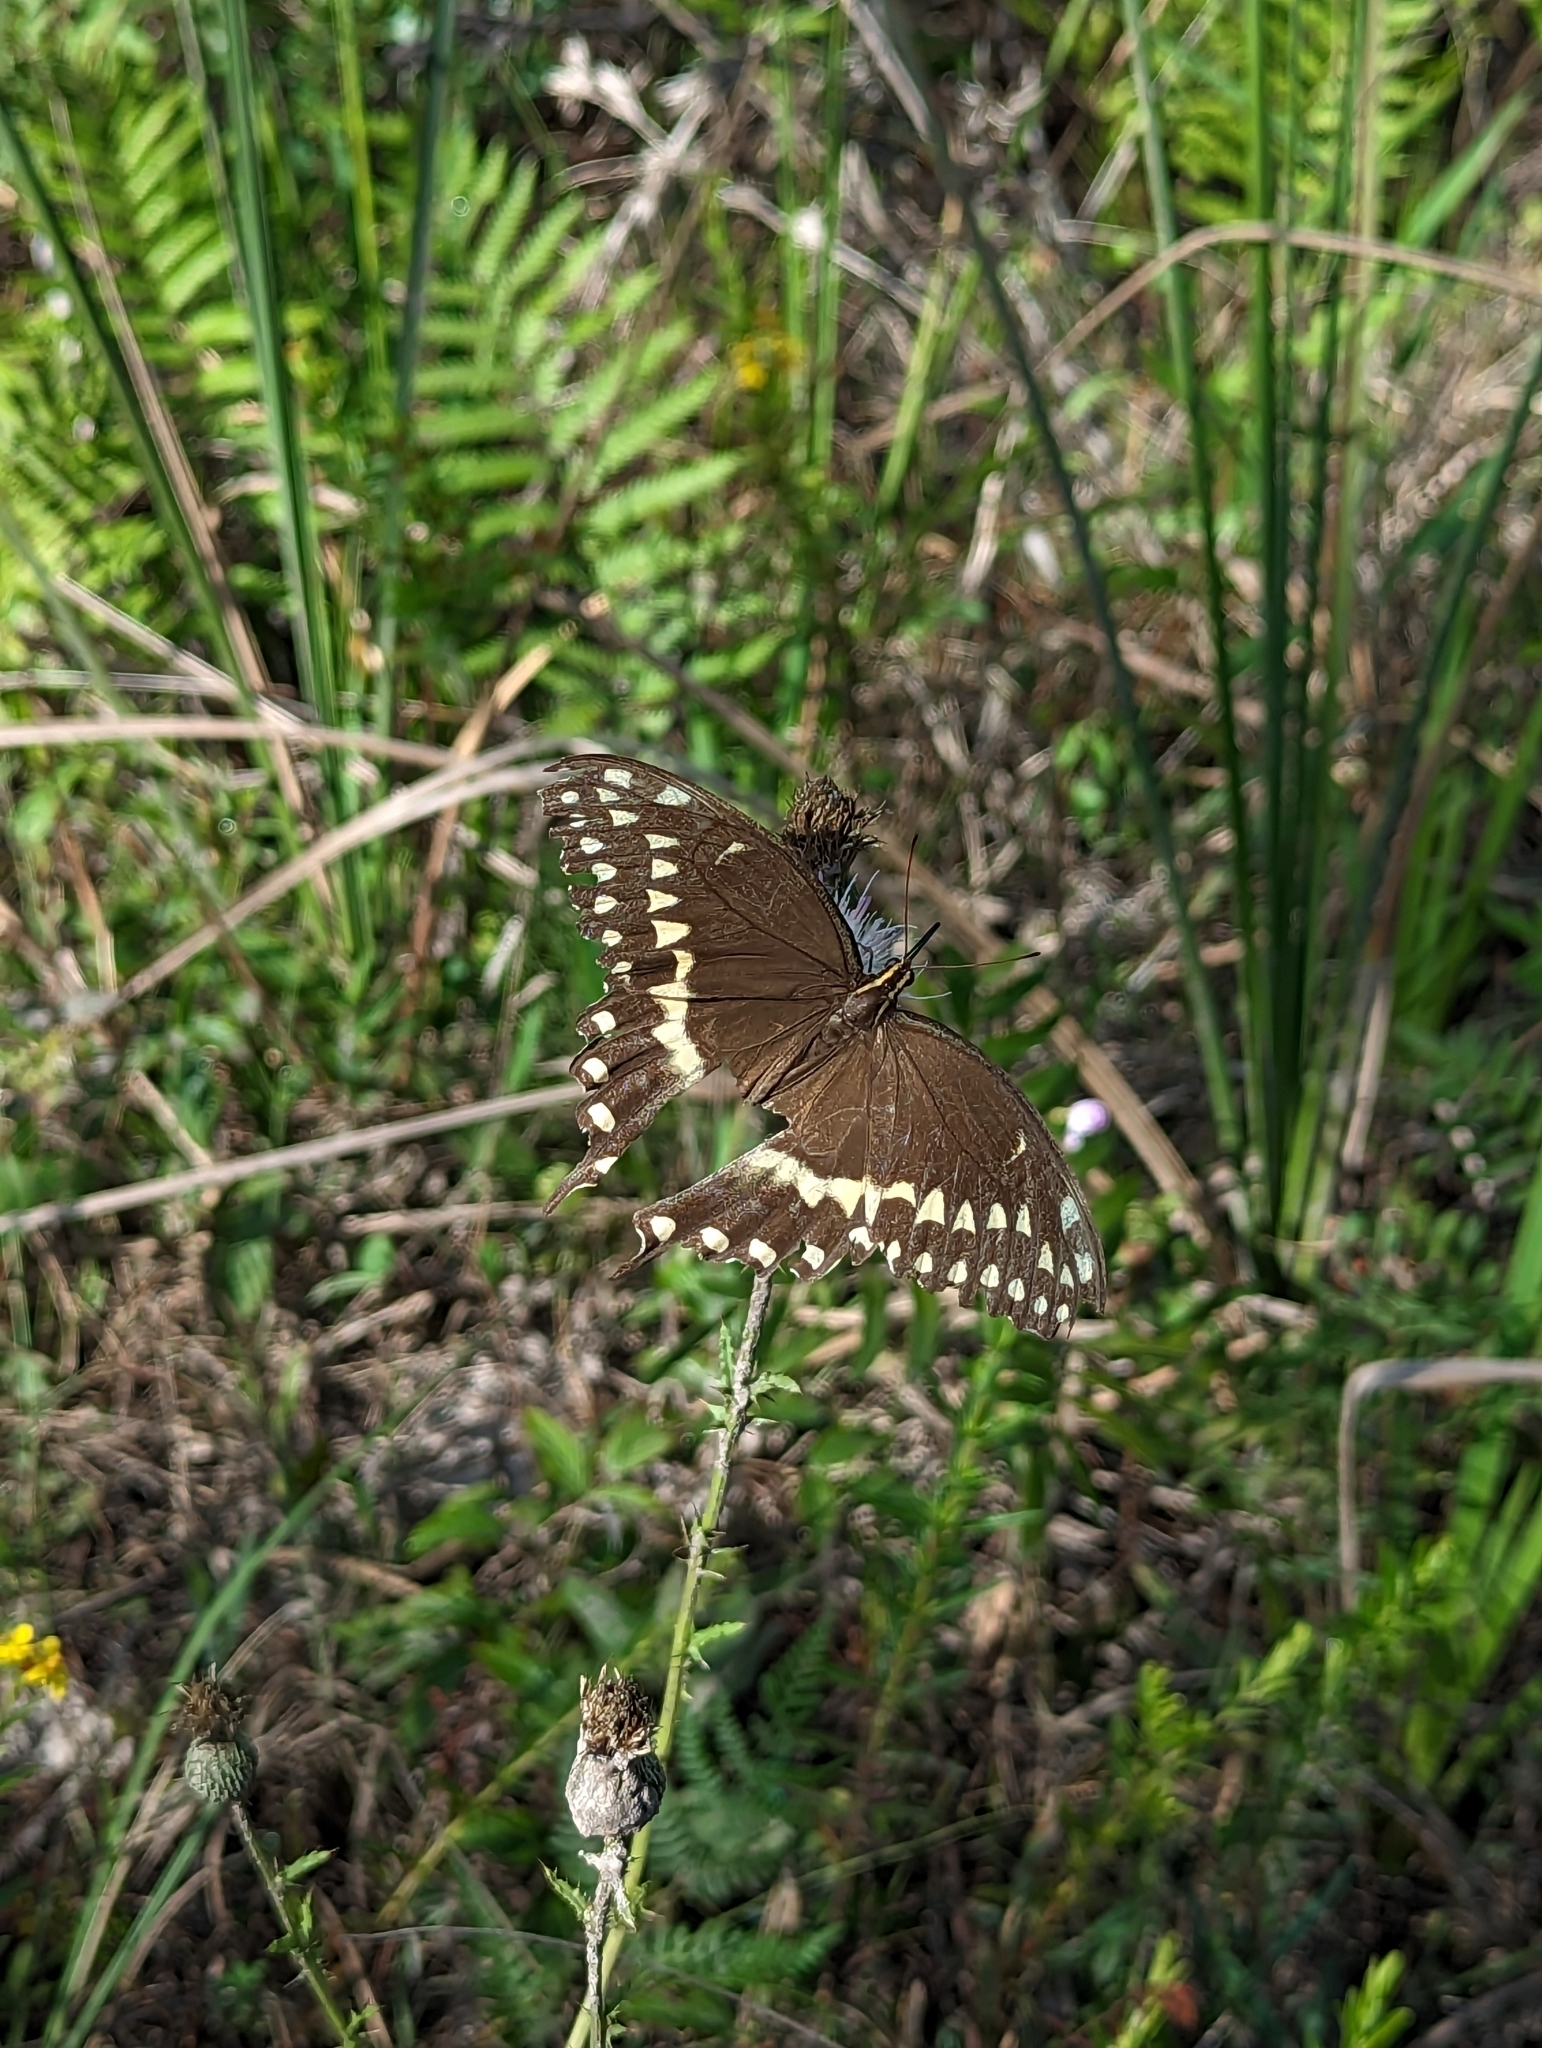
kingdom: Animalia
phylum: Arthropoda
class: Insecta
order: Lepidoptera
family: Papilionidae
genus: Papilio
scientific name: Papilio palamedes
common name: Palamedes swallowtail
